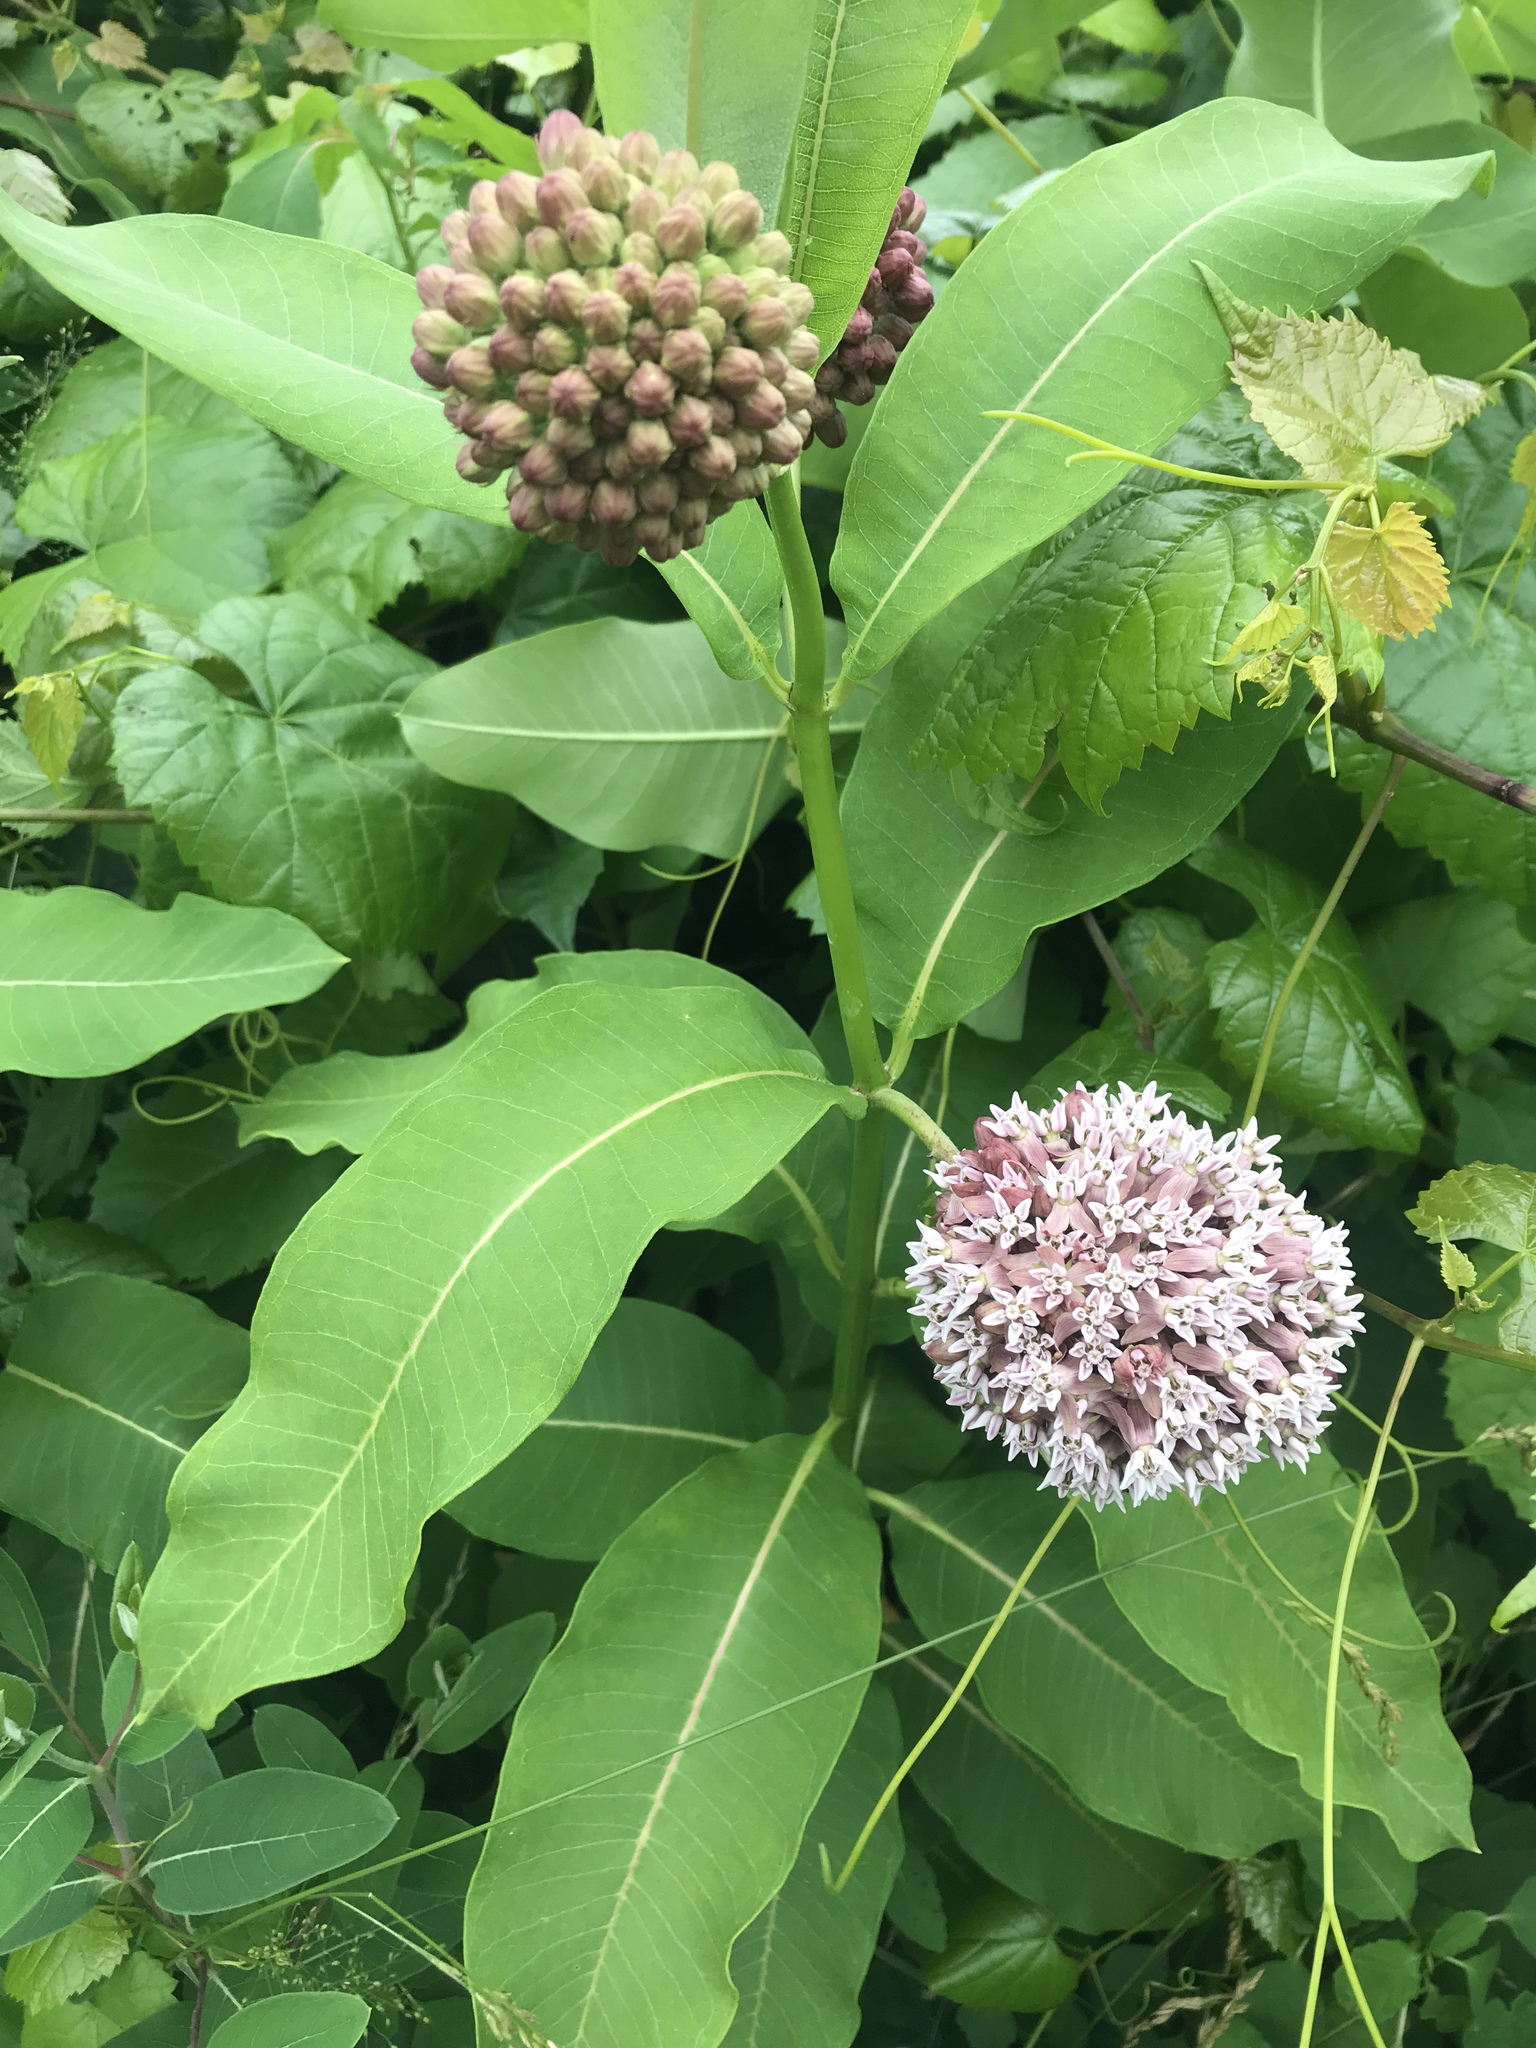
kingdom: Plantae
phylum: Tracheophyta
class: Magnoliopsida
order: Gentianales
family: Apocynaceae
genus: Asclepias
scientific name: Asclepias syriaca
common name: Common milkweed
